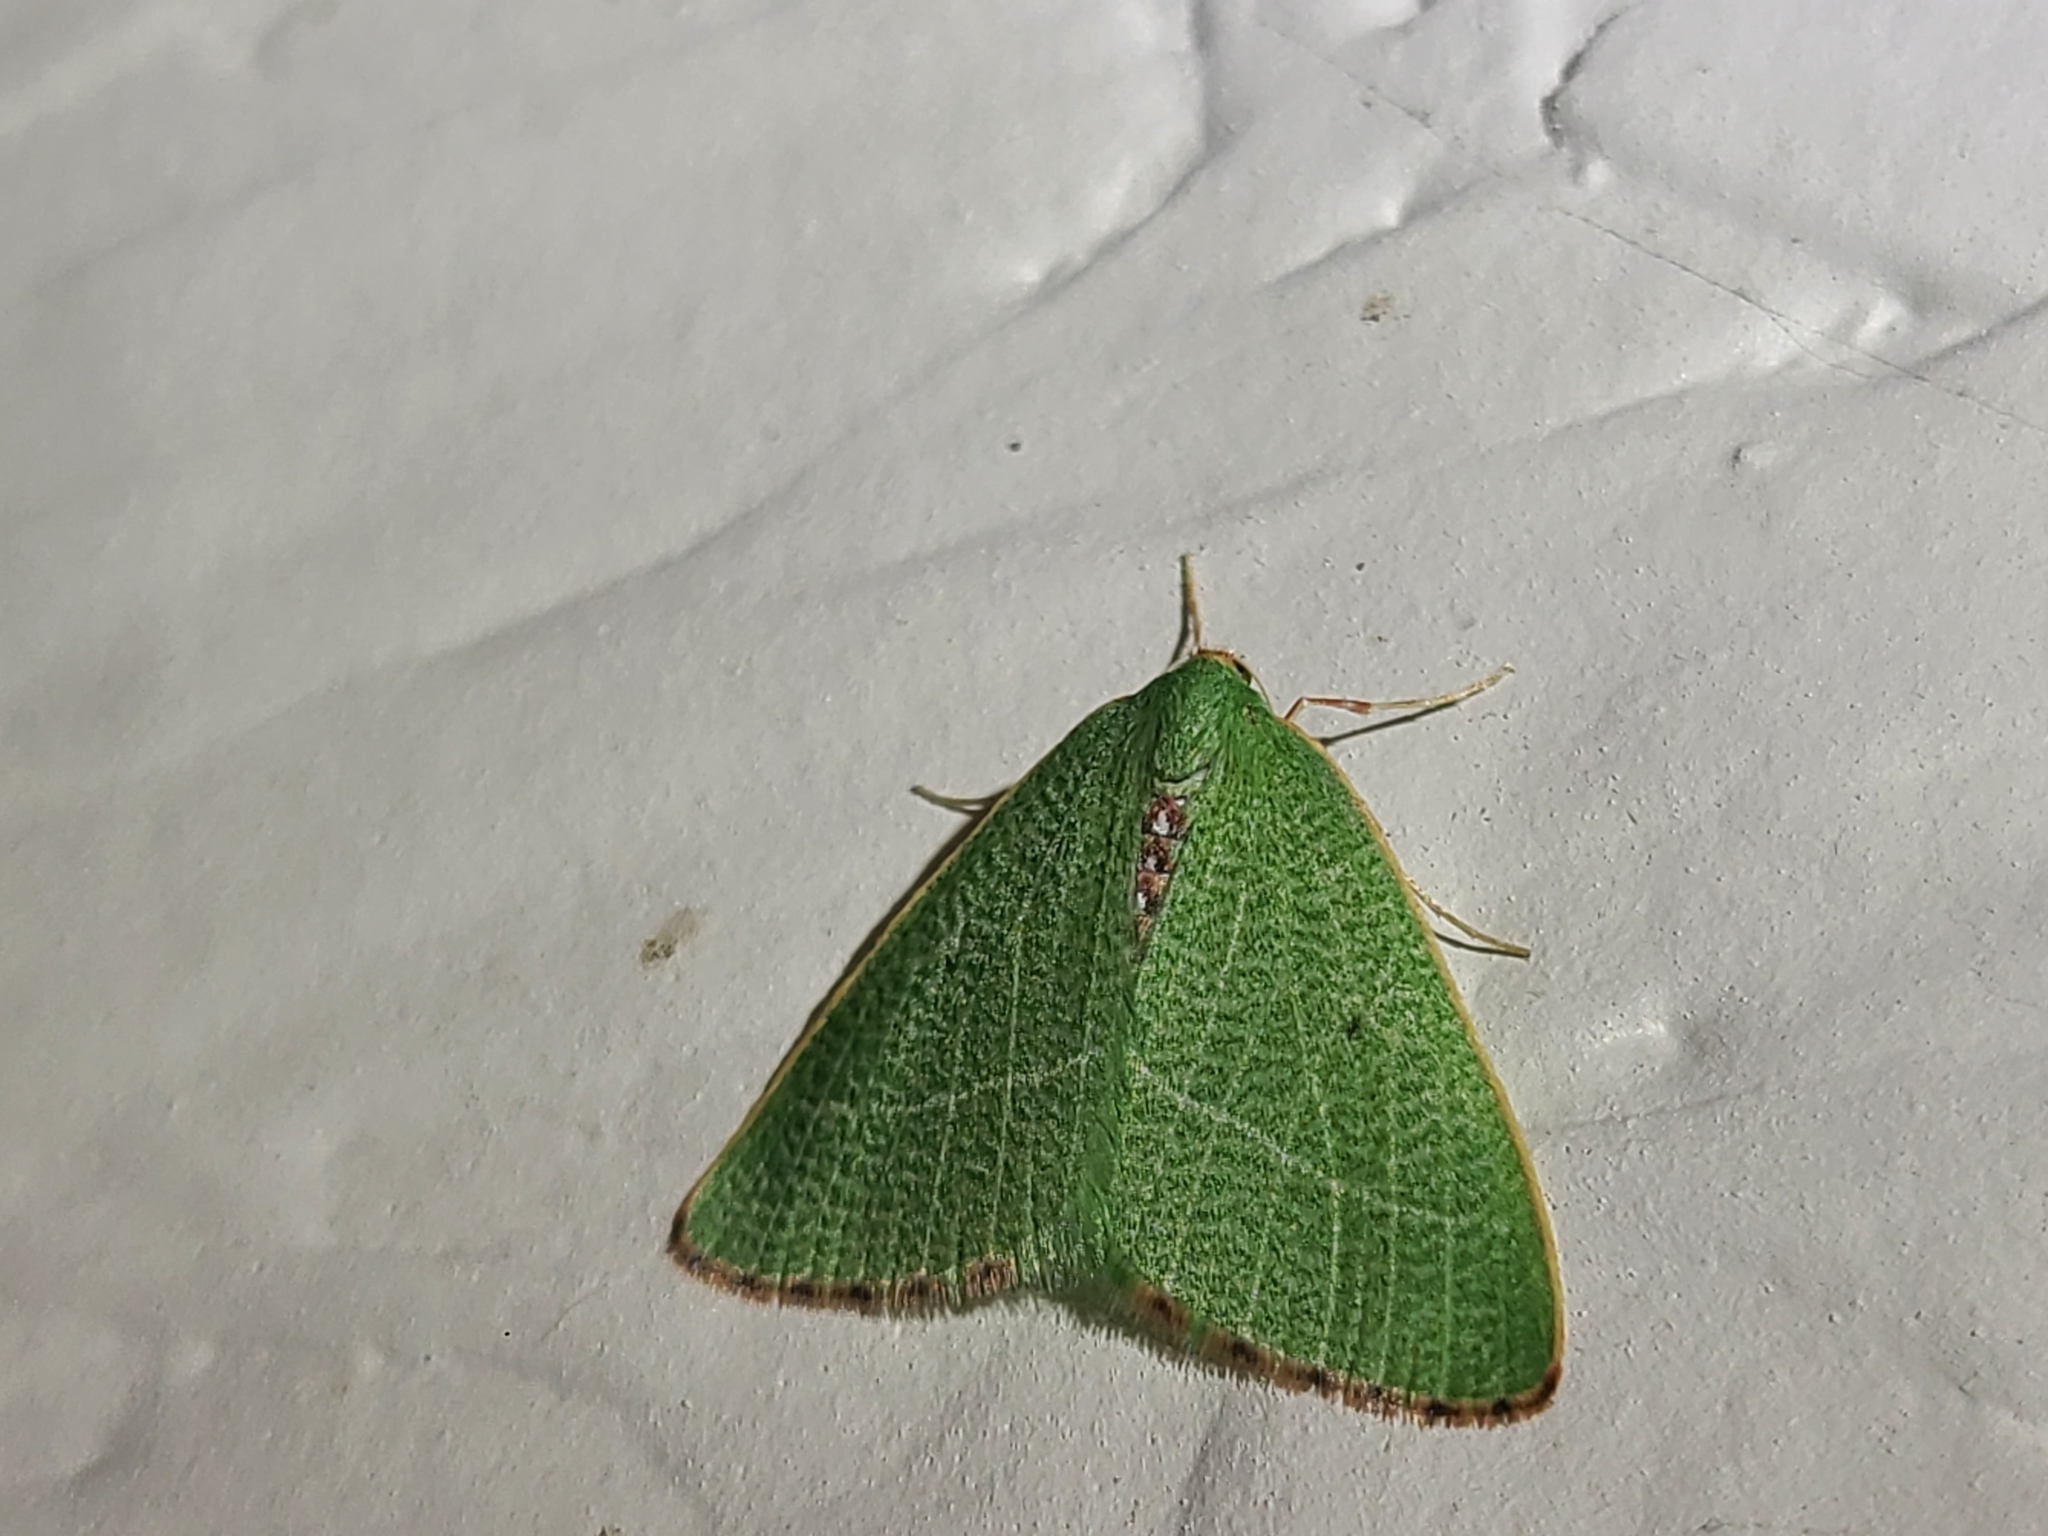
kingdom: Animalia
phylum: Arthropoda
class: Insecta
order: Lepidoptera
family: Geometridae
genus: Nemoria
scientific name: Nemoria pulcherrima
